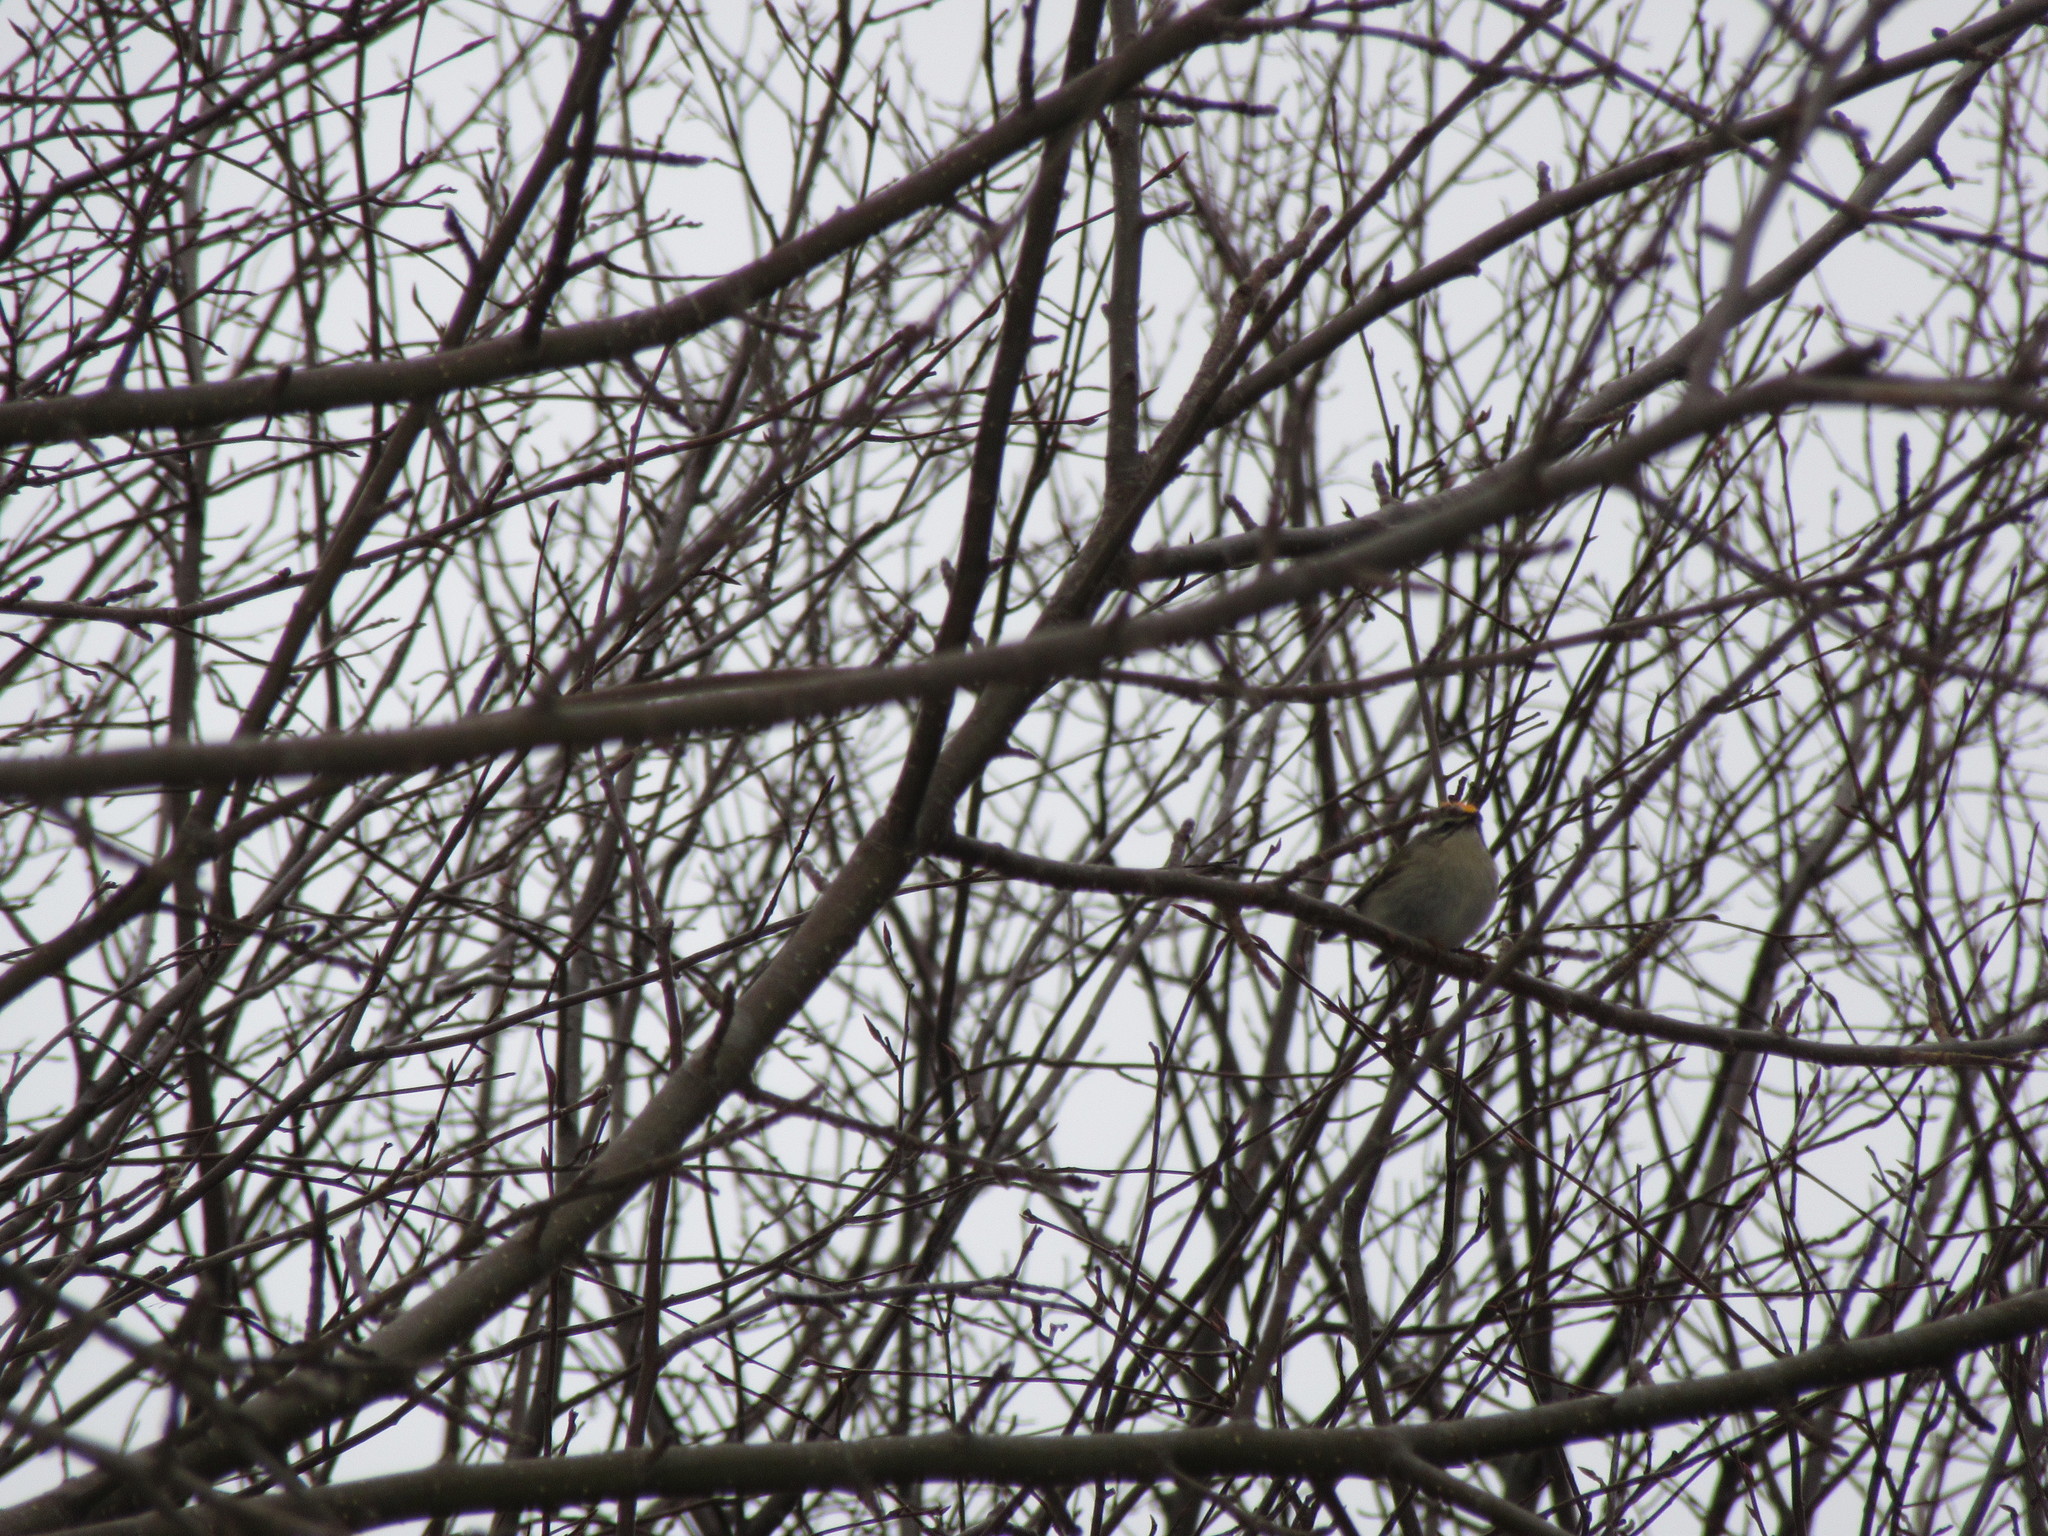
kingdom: Animalia
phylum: Chordata
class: Aves
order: Passeriformes
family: Regulidae
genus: Regulus
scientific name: Regulus satrapa
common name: Golden-crowned kinglet
